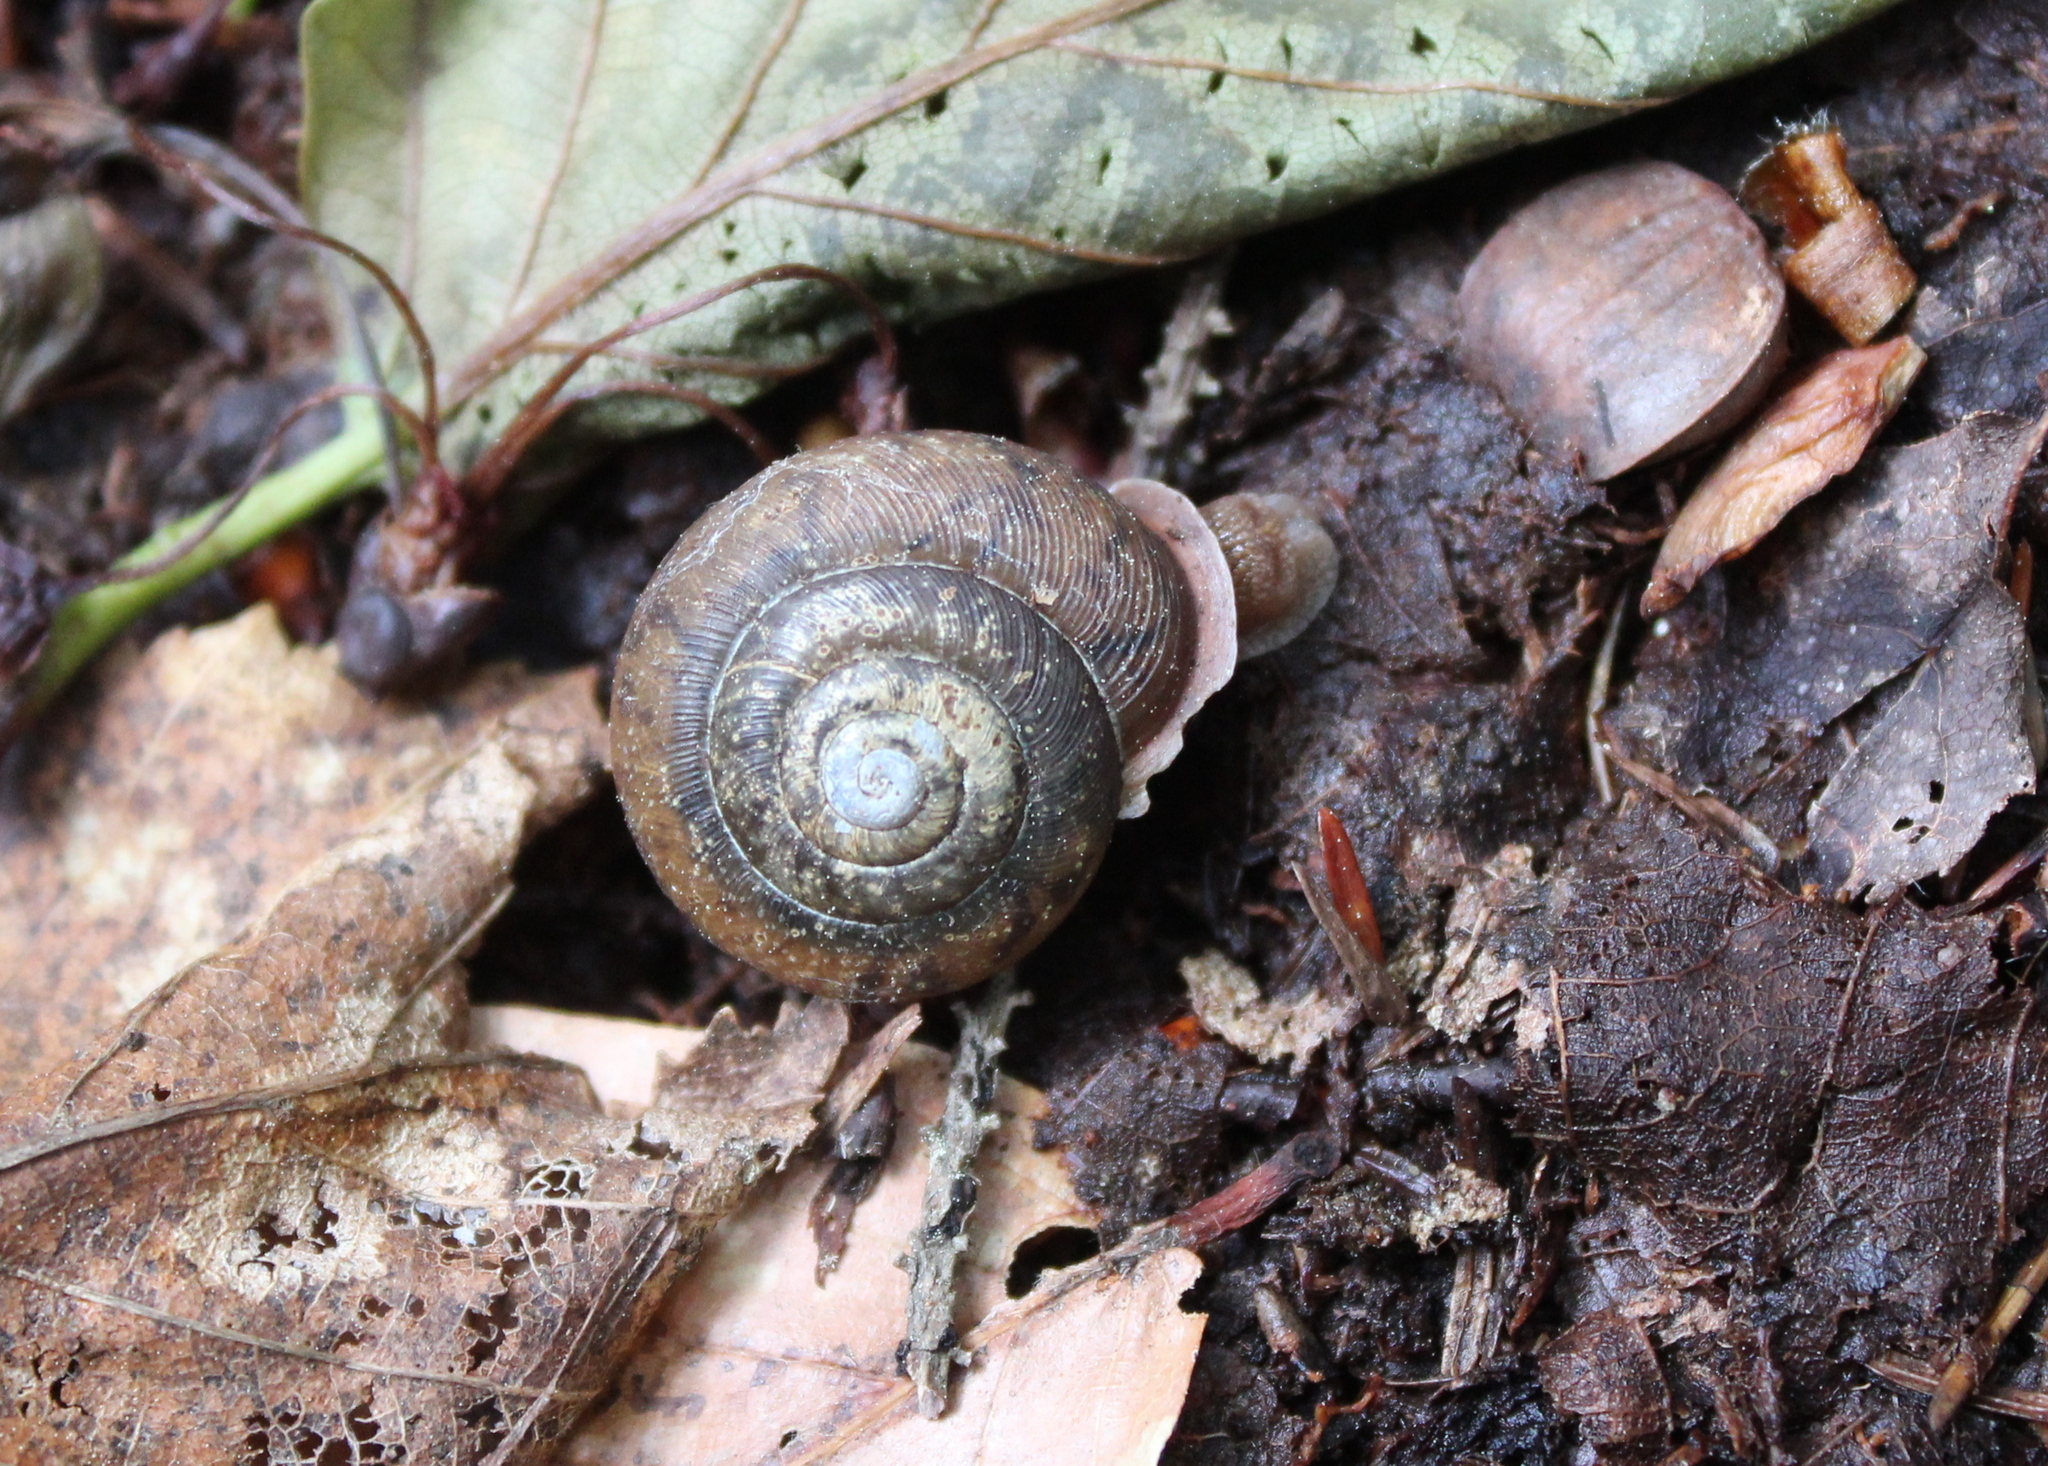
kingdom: Animalia
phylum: Mollusca
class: Gastropoda
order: Stylommatophora
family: Polygyridae
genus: Neohelix
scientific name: Neohelix albolabris
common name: Eastern whitelip
